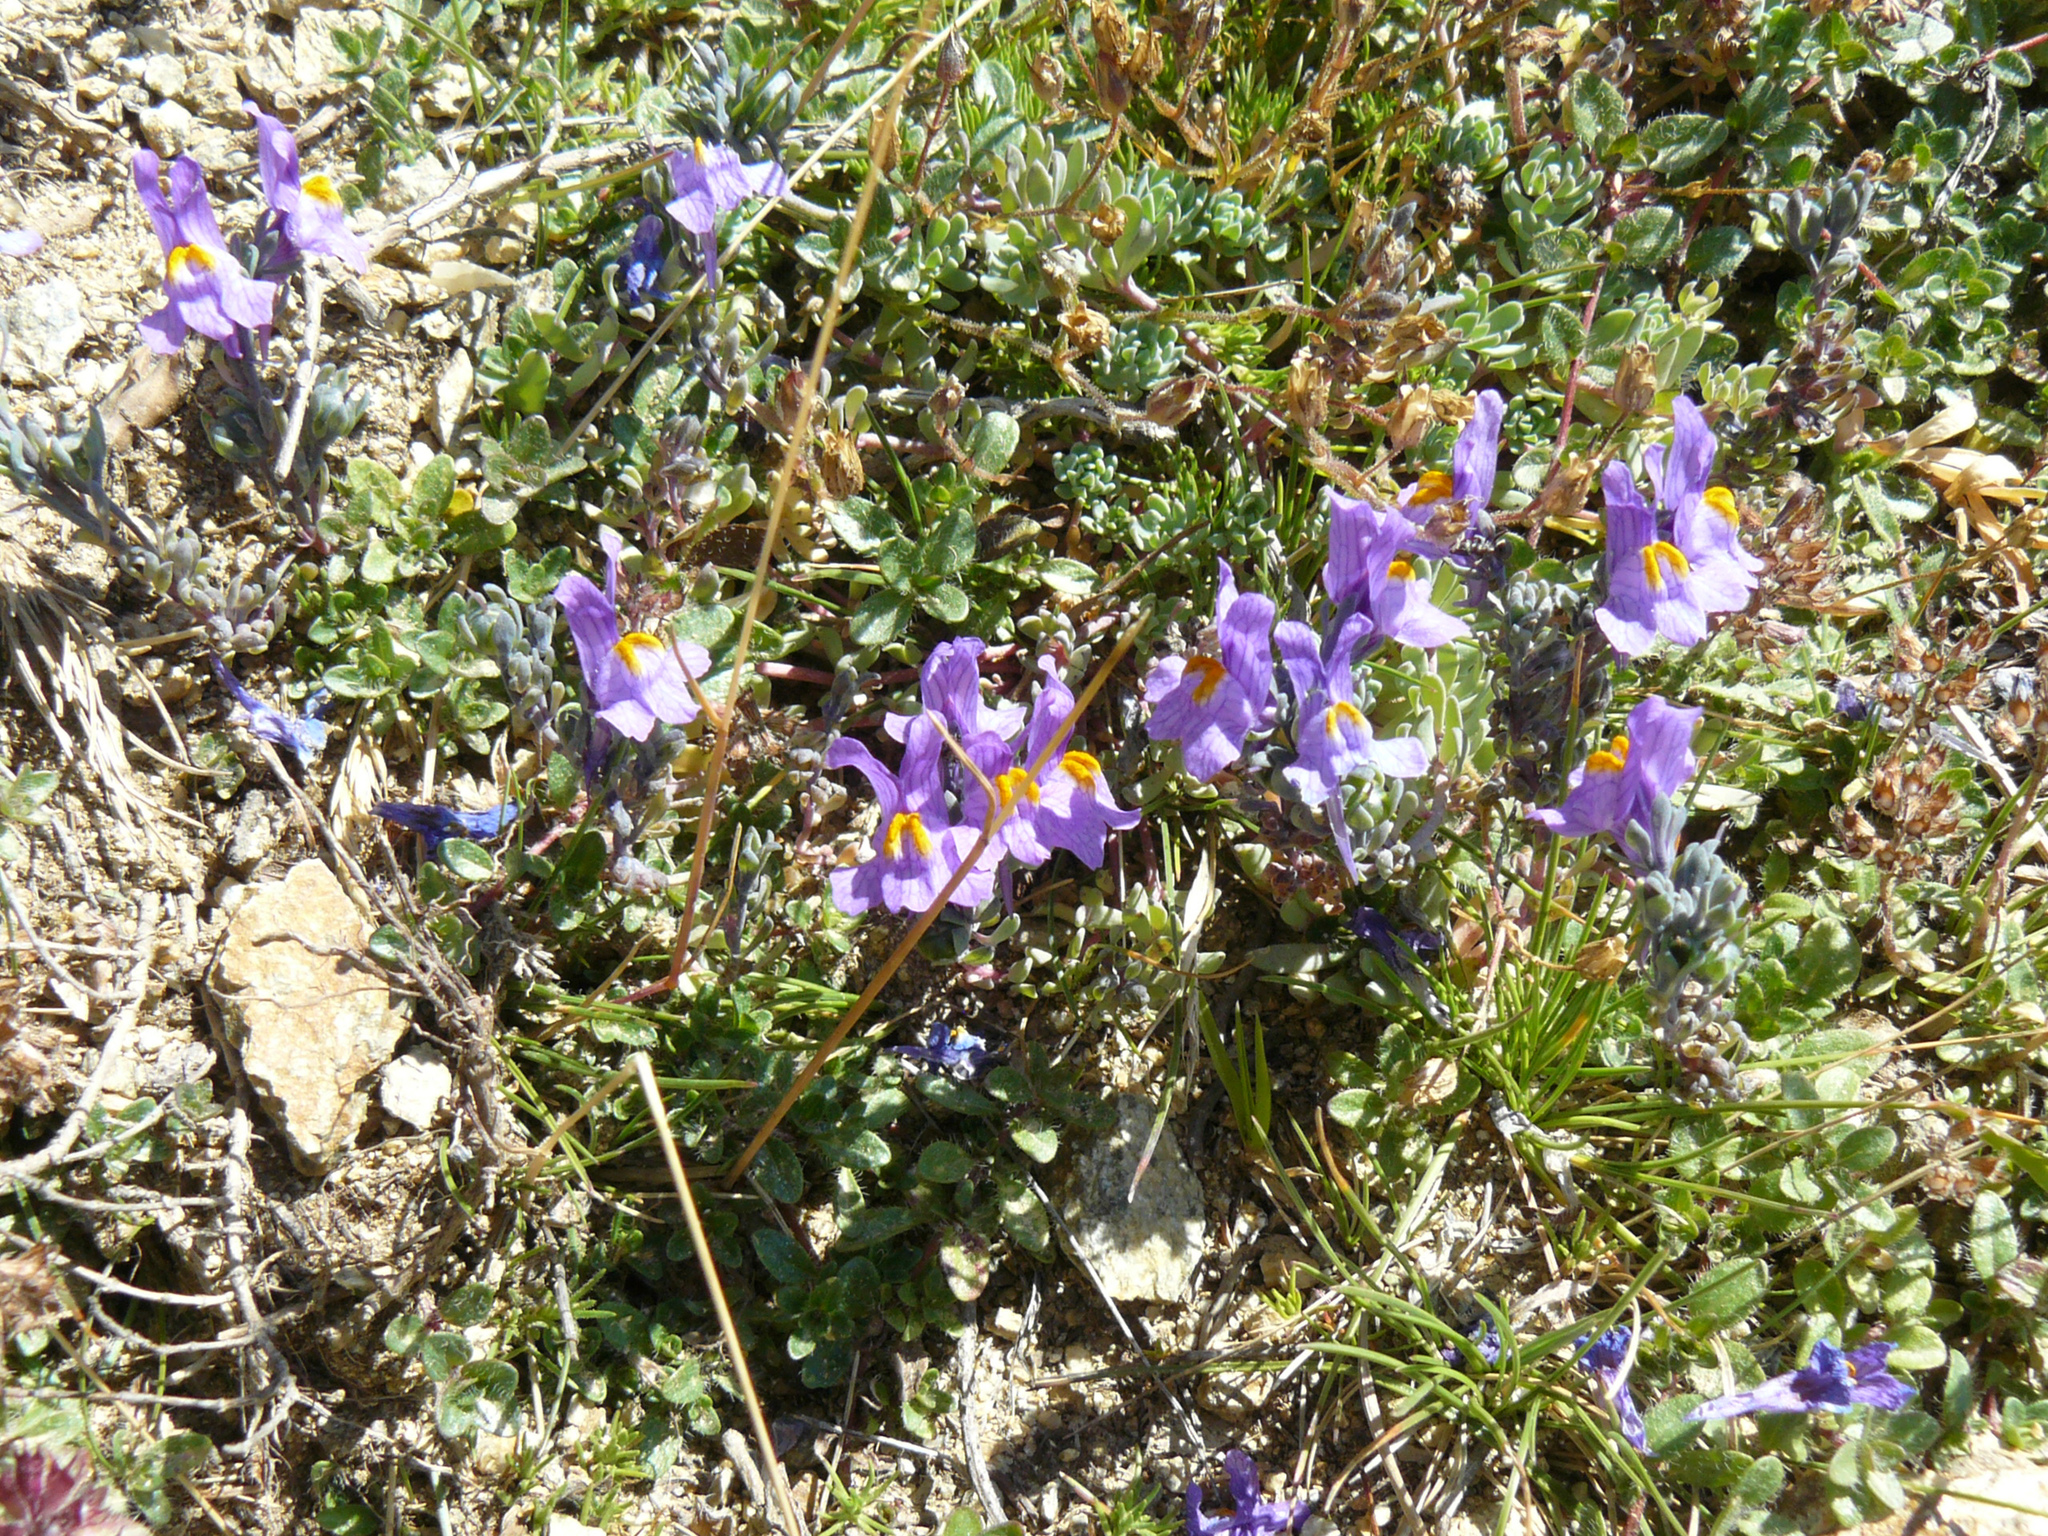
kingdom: Plantae
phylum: Tracheophyta
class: Magnoliopsida
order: Lamiales
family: Plantaginaceae
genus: Linaria
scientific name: Linaria alpina
